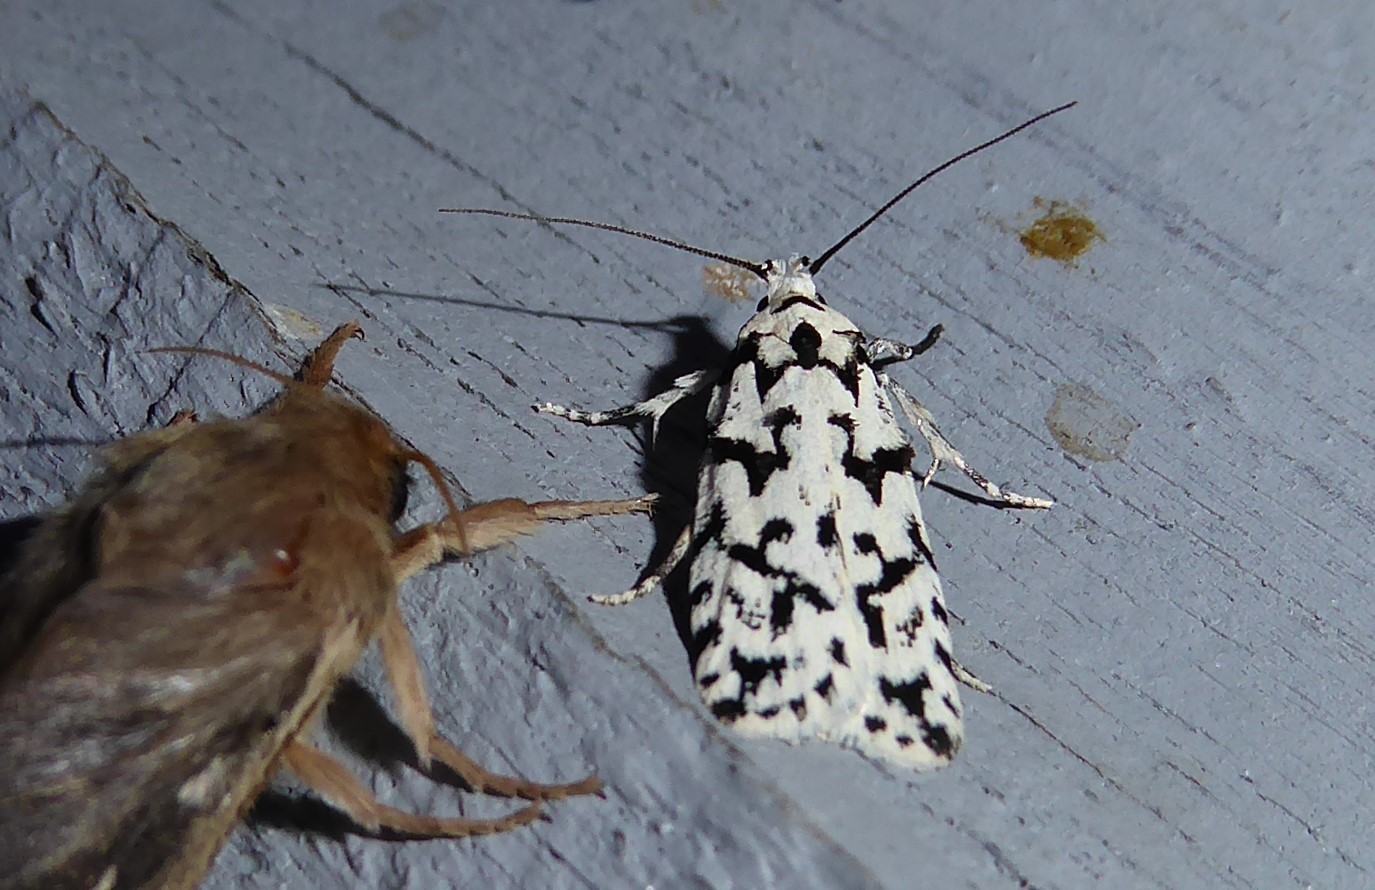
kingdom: Animalia
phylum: Arthropoda
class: Insecta
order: Lepidoptera
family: Oecophoridae
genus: Izatha
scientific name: Izatha katadiktya
